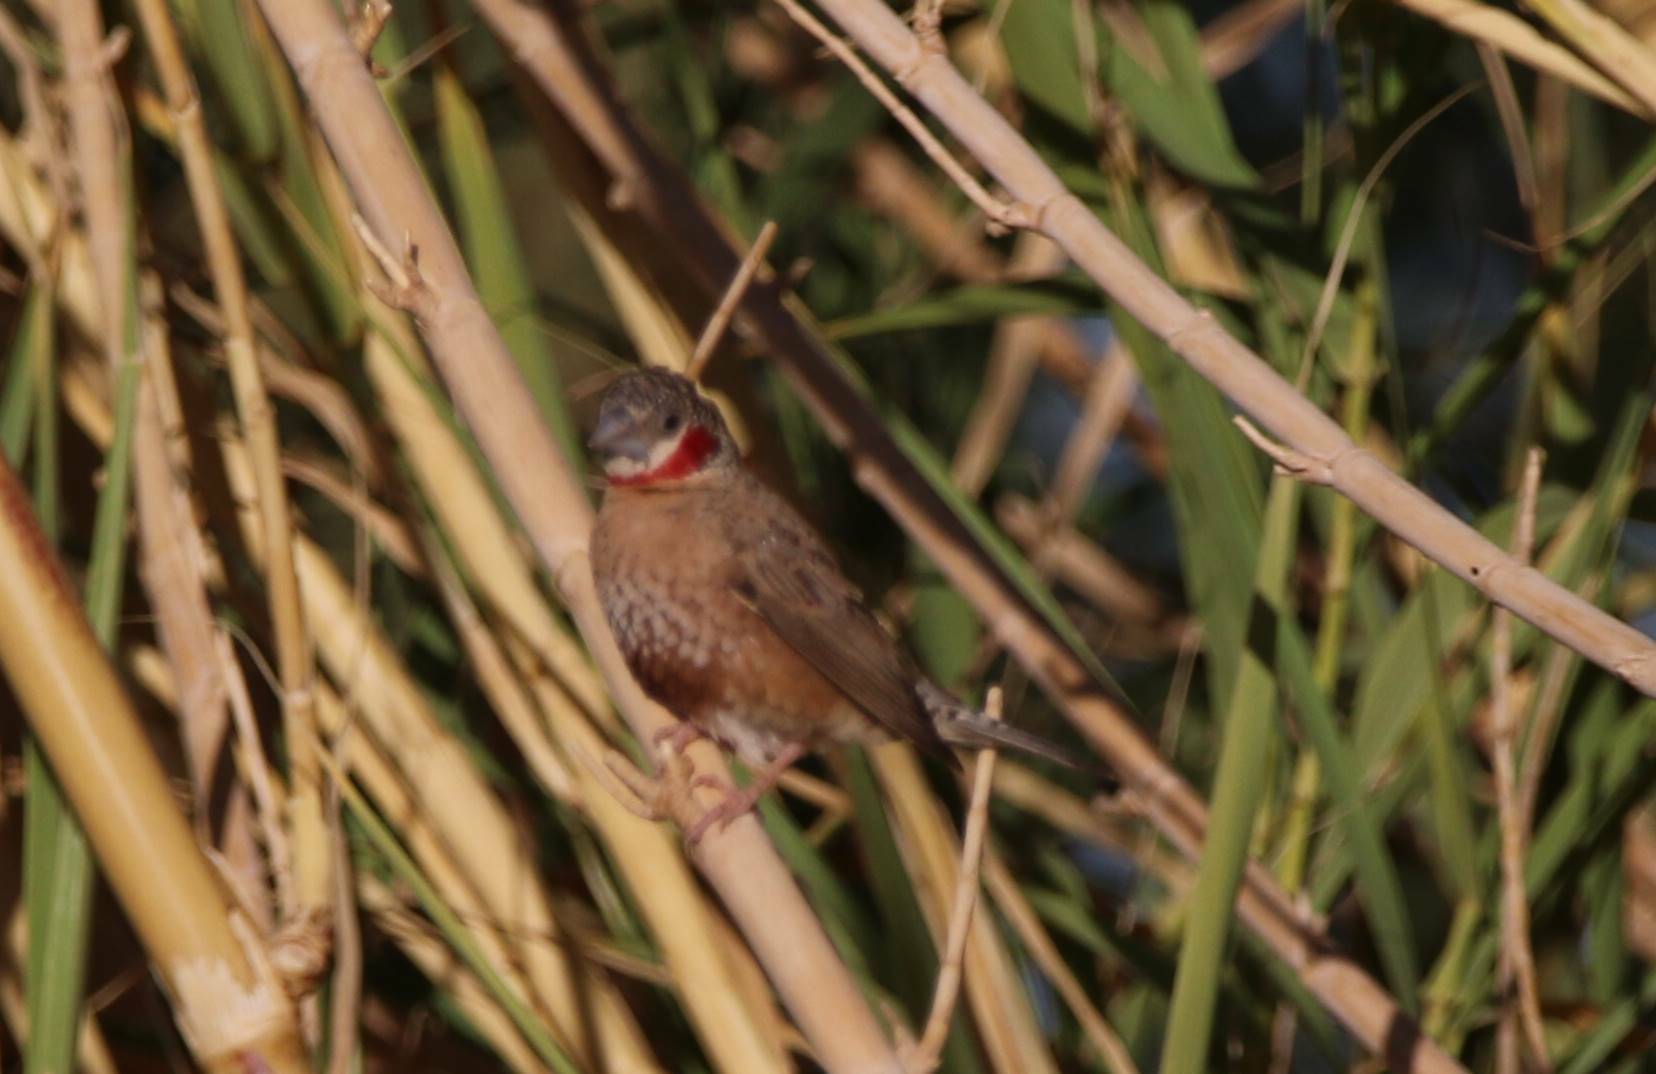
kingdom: Animalia
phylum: Chordata
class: Aves
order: Passeriformes
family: Estrildidae
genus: Amadina
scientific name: Amadina fasciata
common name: Cut-throat finch
